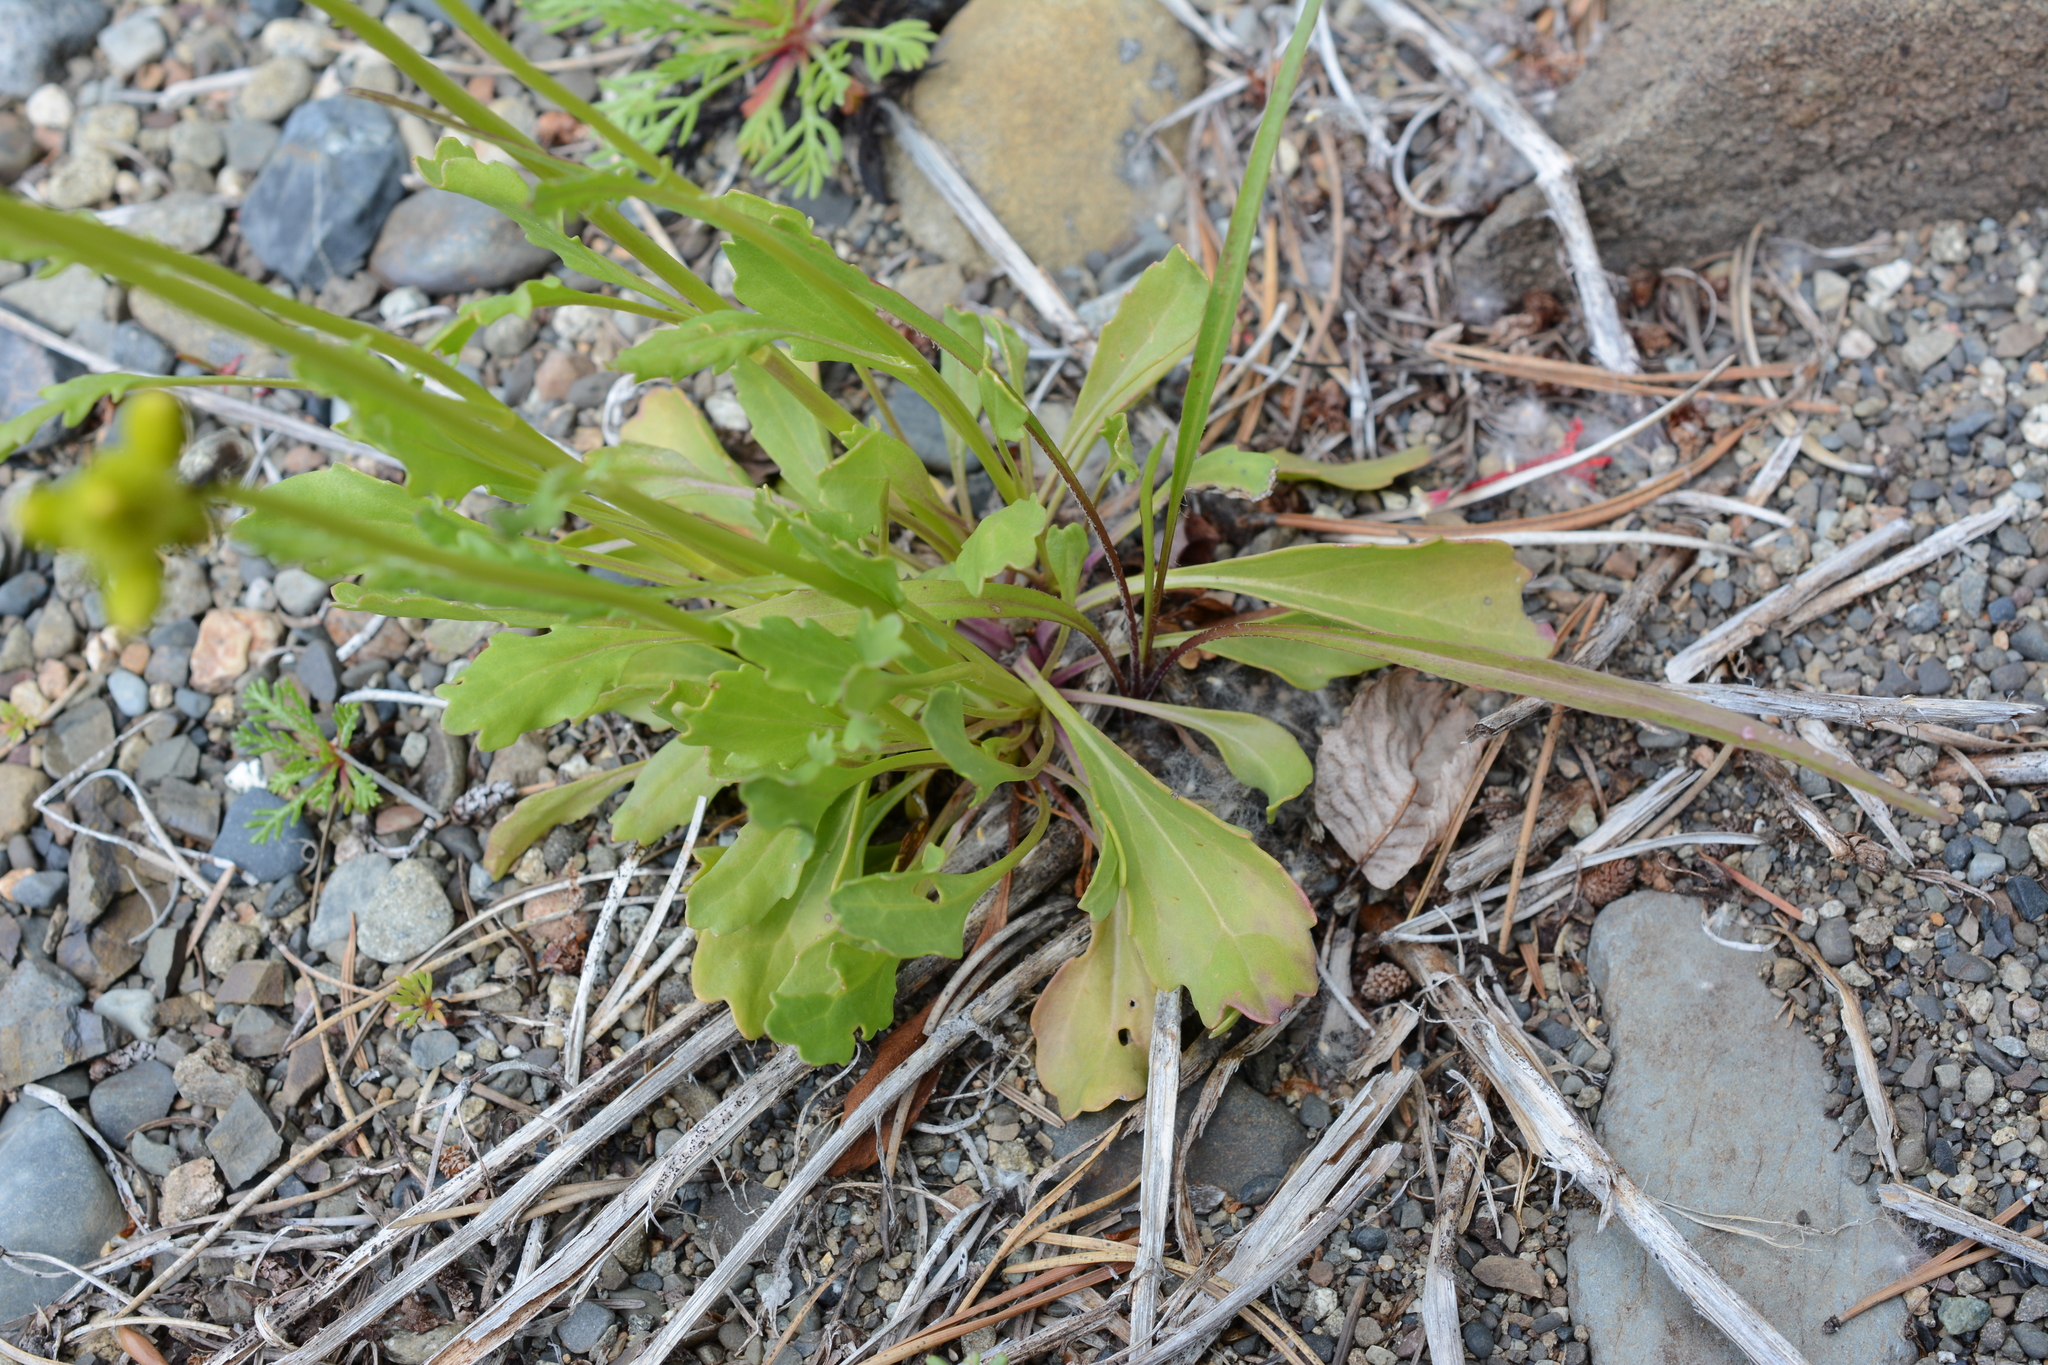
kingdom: Plantae
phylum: Tracheophyta
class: Magnoliopsida
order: Asterales
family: Asteraceae
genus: Packera
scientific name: Packera streptanthifolia
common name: Rocky mountain butterweed
